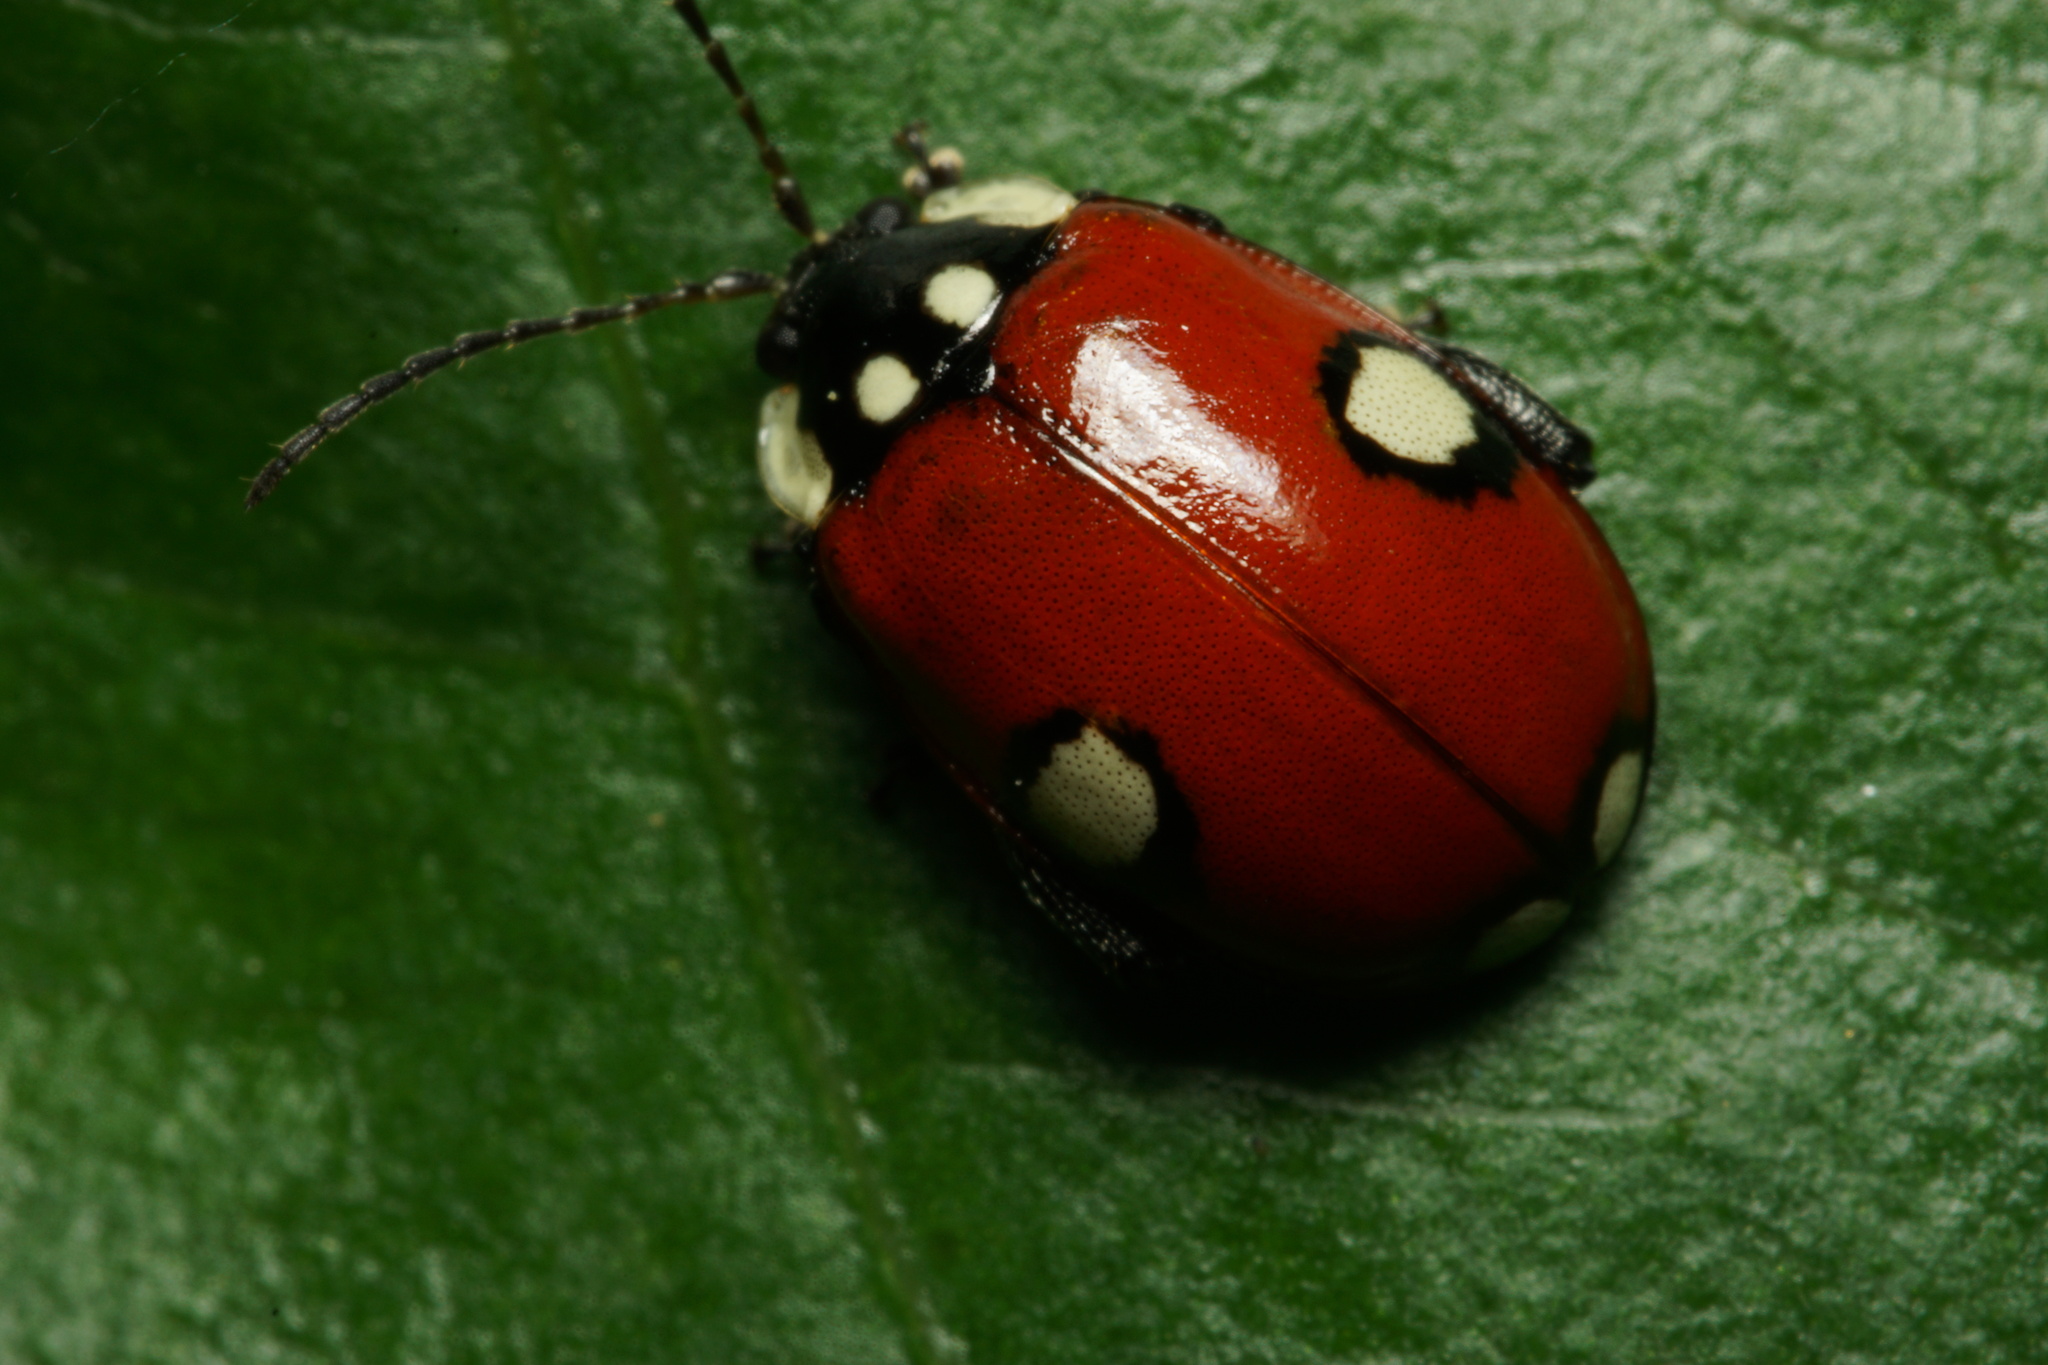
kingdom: Animalia
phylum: Arthropoda
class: Insecta
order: Coleoptera
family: Chrysomelidae
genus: Alagoasa
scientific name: Alagoasa
